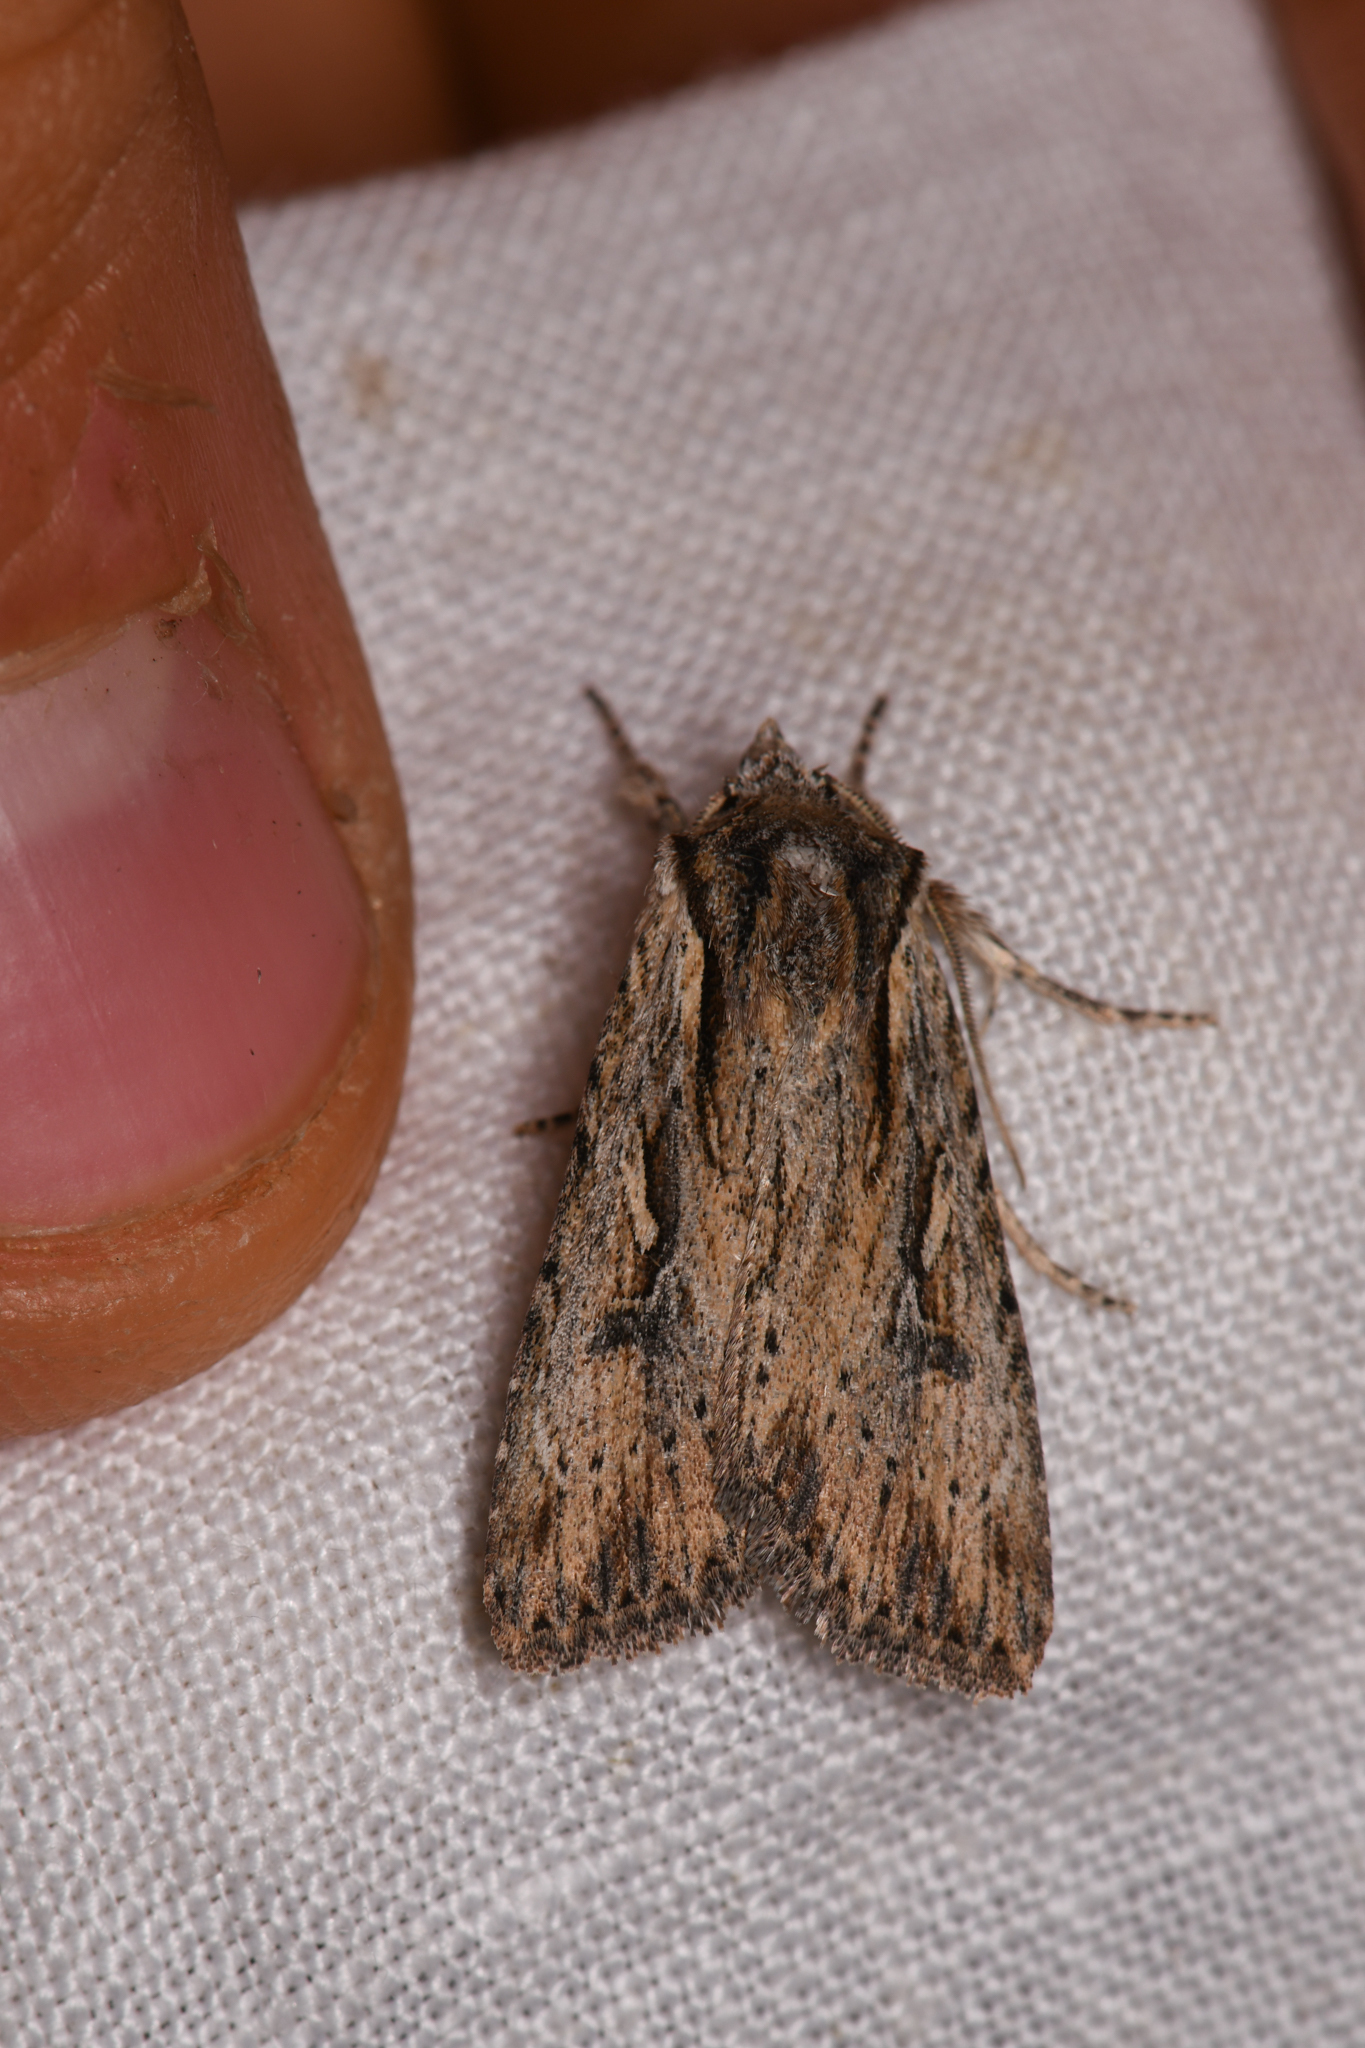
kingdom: Animalia
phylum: Arthropoda
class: Insecta
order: Lepidoptera
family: Noctuidae
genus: Xestia
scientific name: Xestia infimatis
